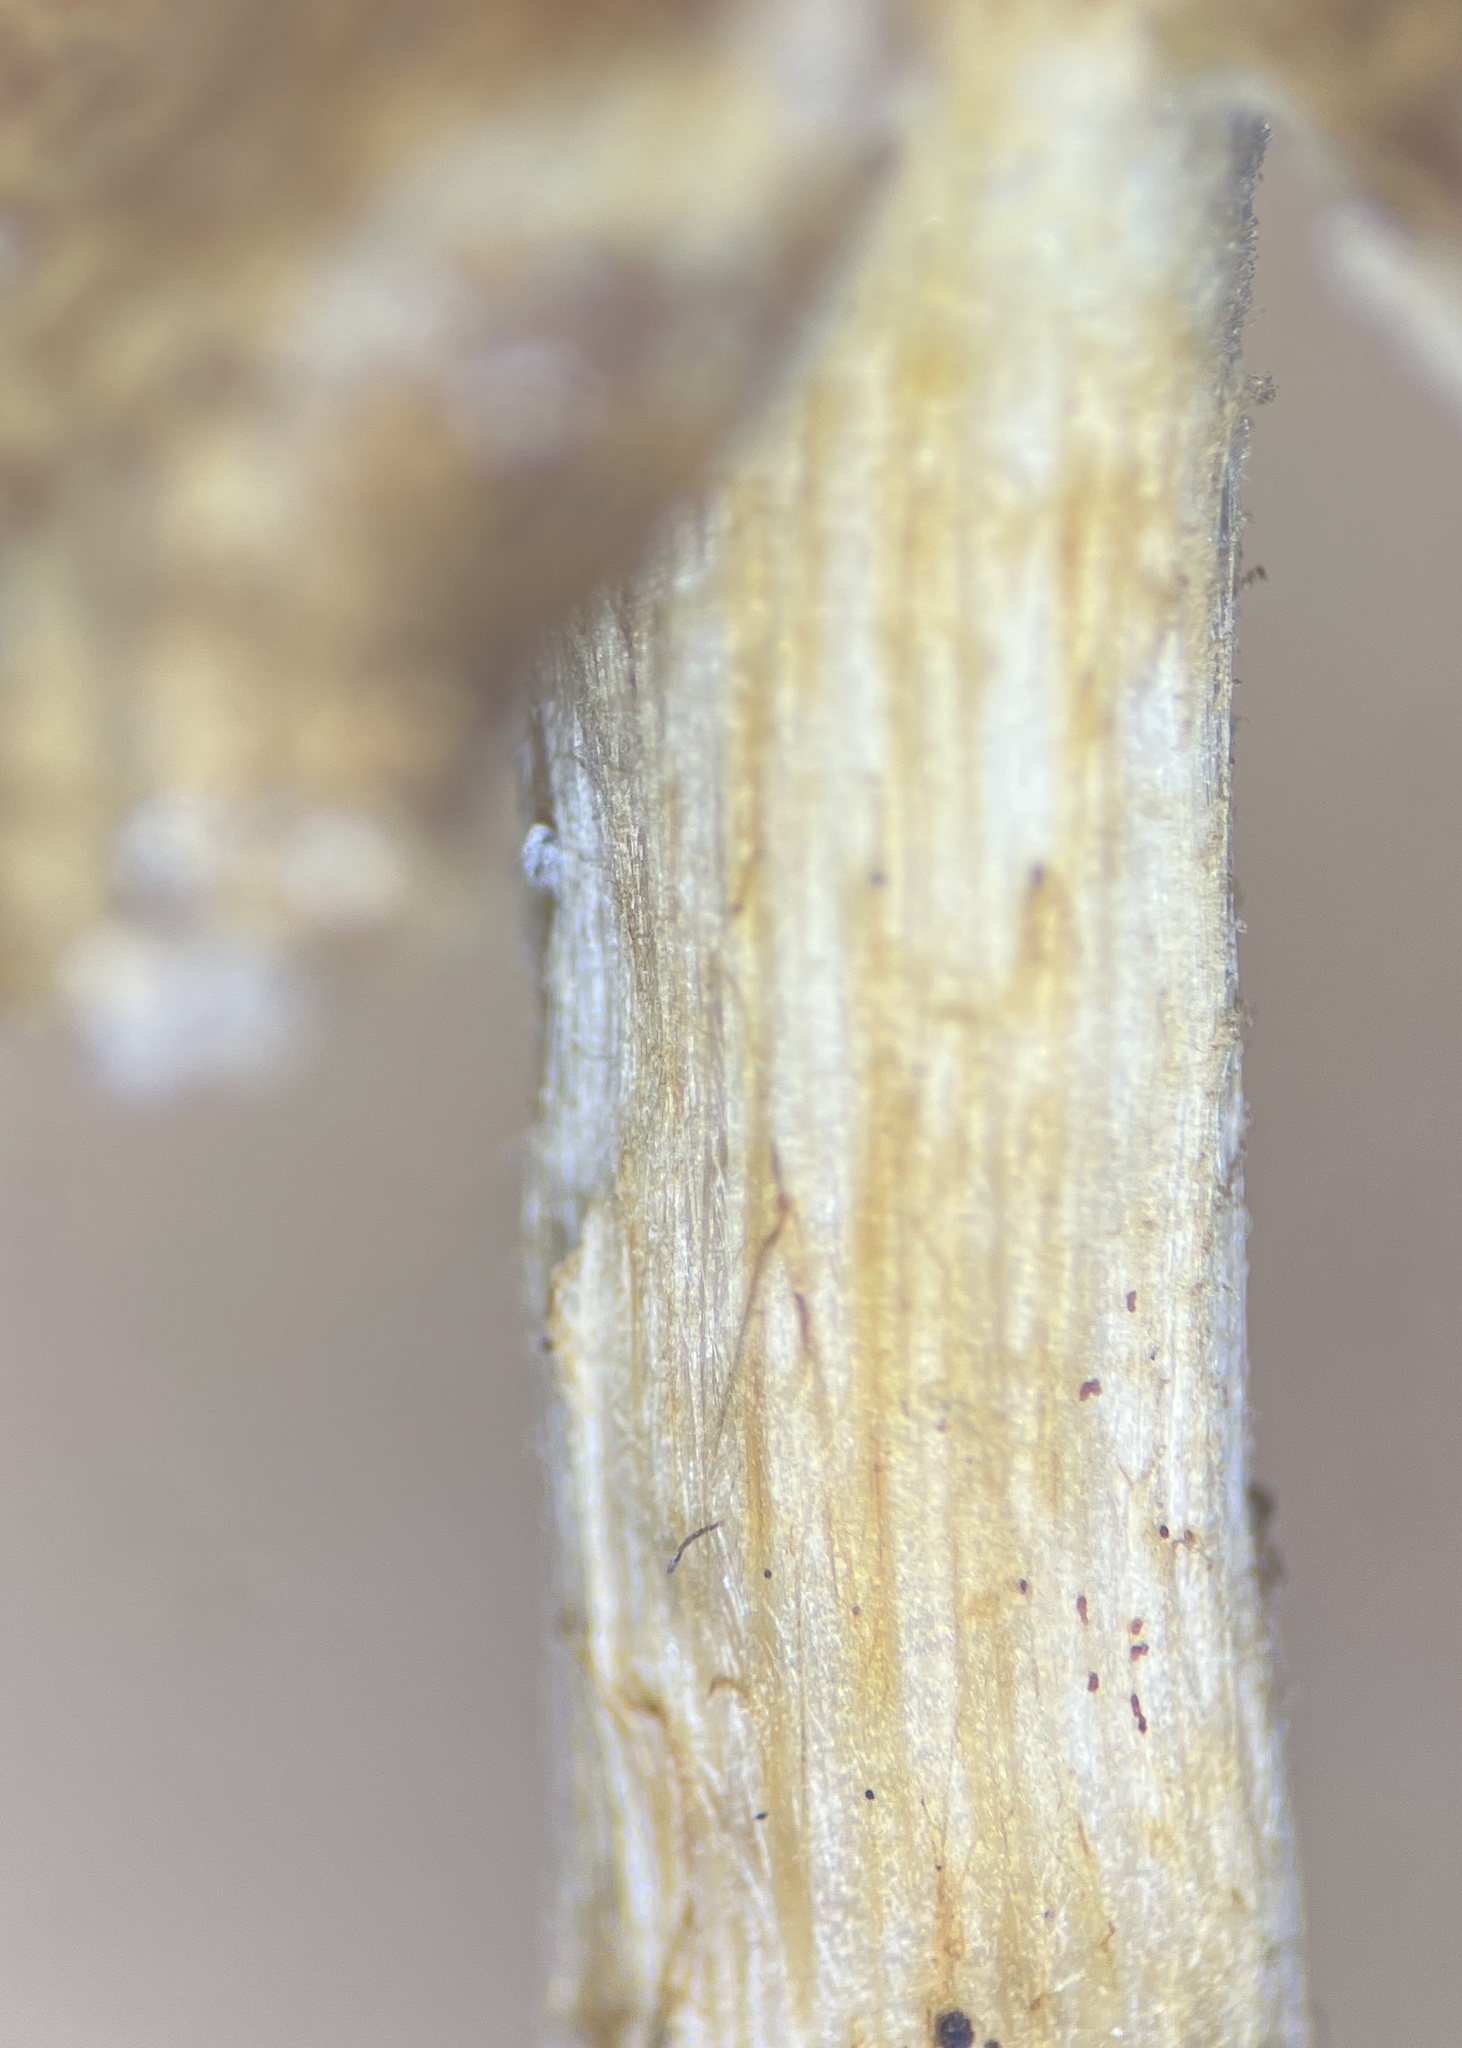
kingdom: Fungi
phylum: Basidiomycota
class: Agaricomycetes
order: Agaricales
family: Inocybaceae
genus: Mallocybe
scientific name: Mallocybe multispora
